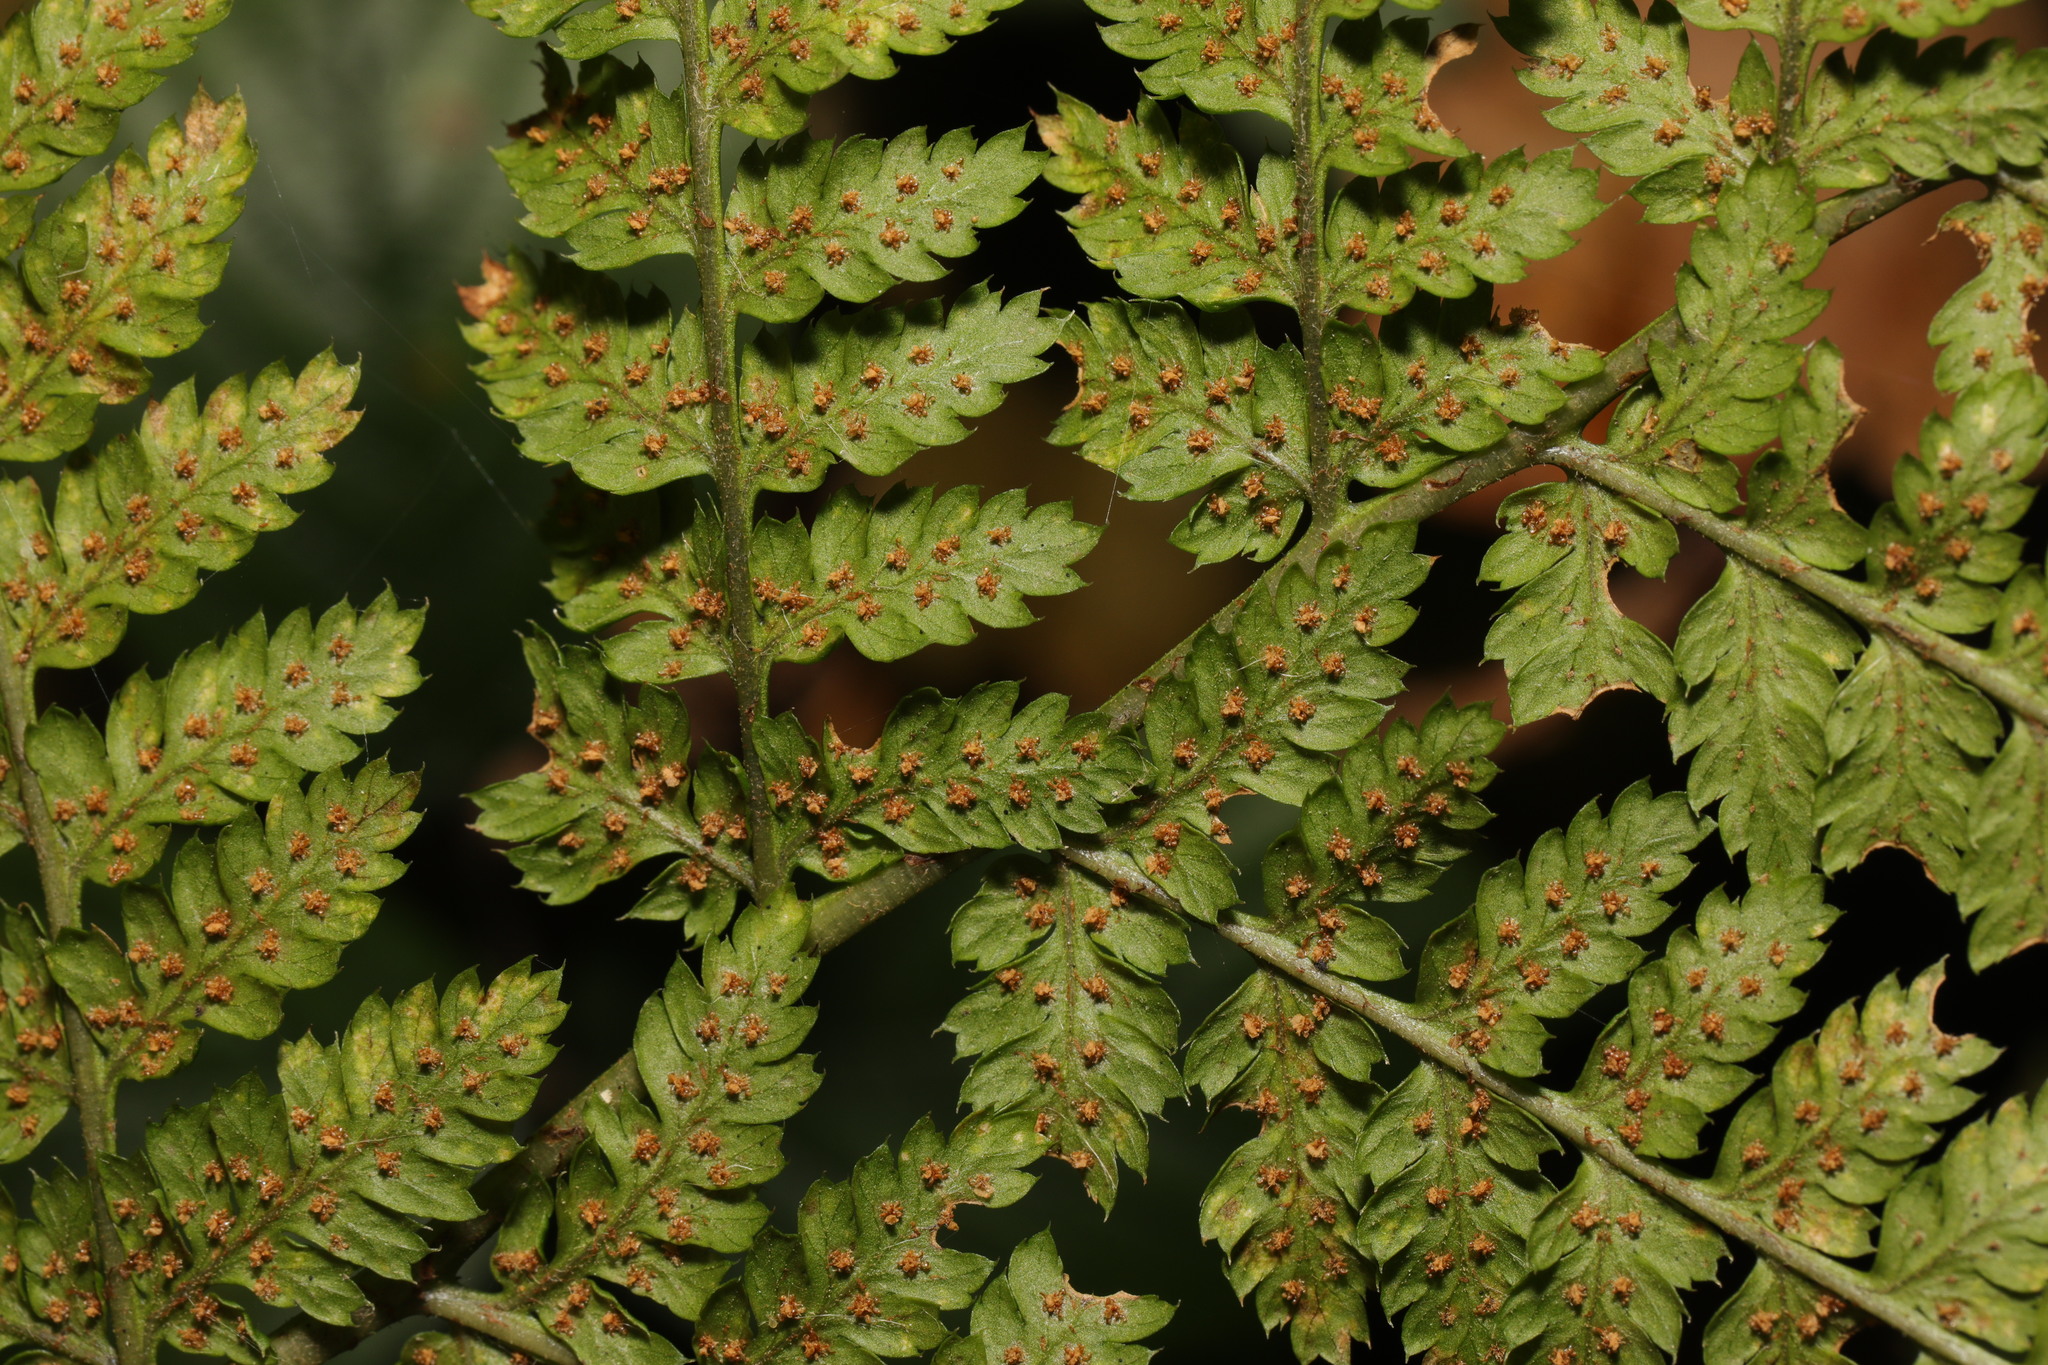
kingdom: Plantae
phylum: Tracheophyta
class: Polypodiopsida
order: Polypodiales
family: Dryopteridaceae
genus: Dryopteris
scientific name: Dryopteris dilatata
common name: Broad buckler-fern
